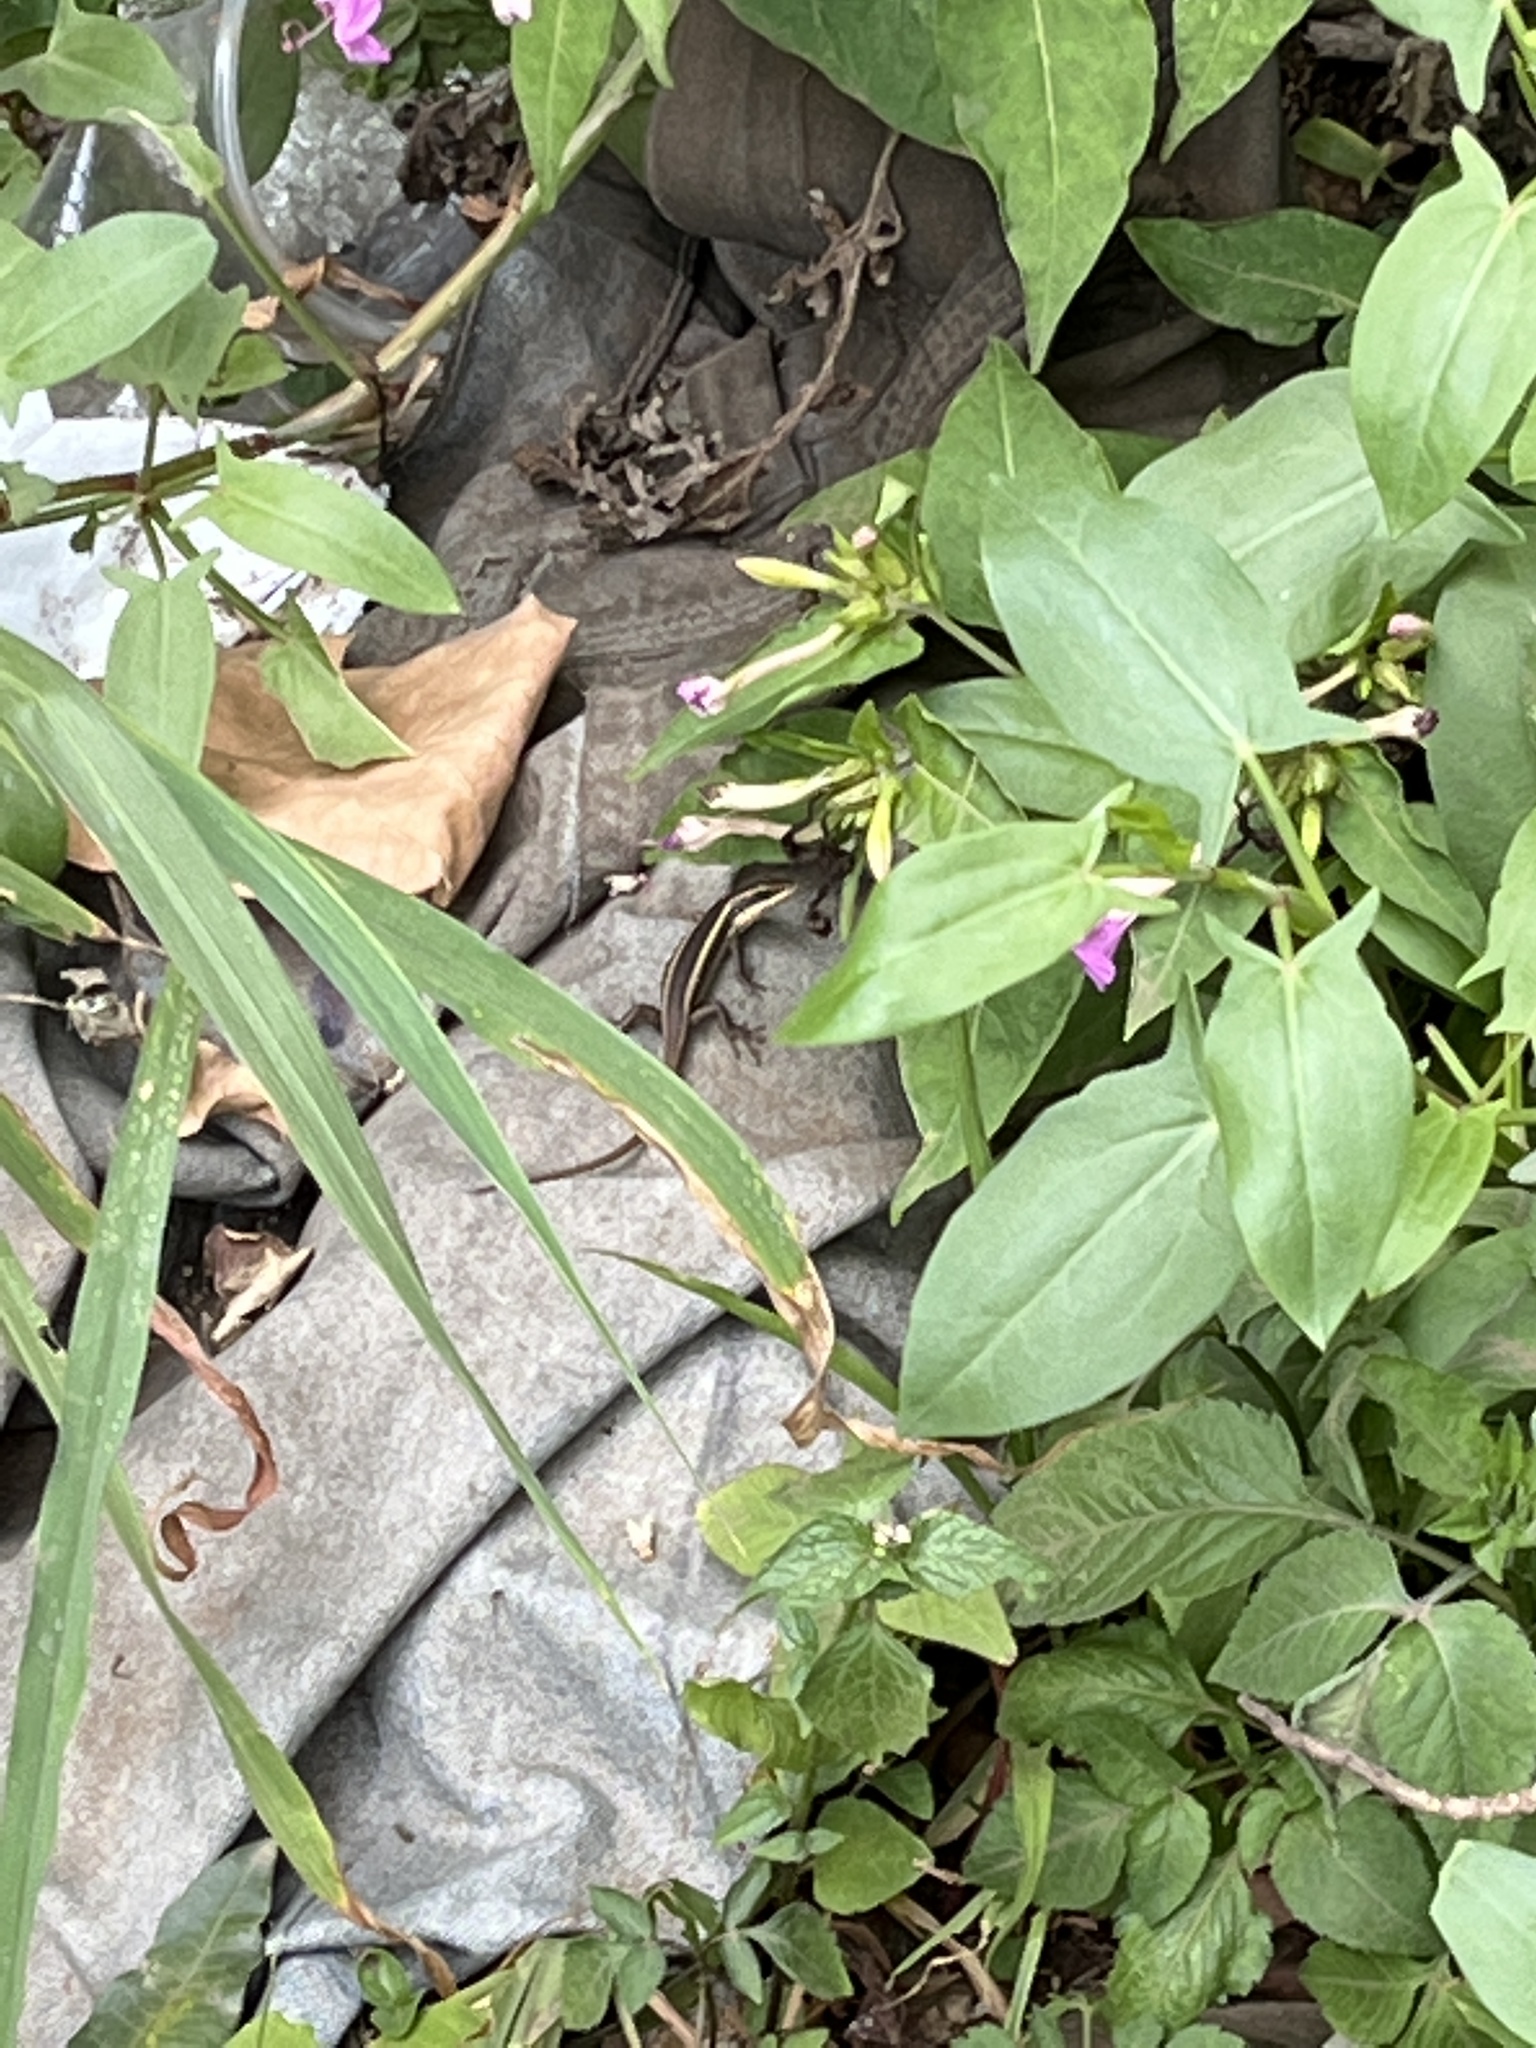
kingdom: Animalia
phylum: Chordata
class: Squamata
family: Scincidae
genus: Trachylepis
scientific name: Trachylepis striata
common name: African striped mabuya
